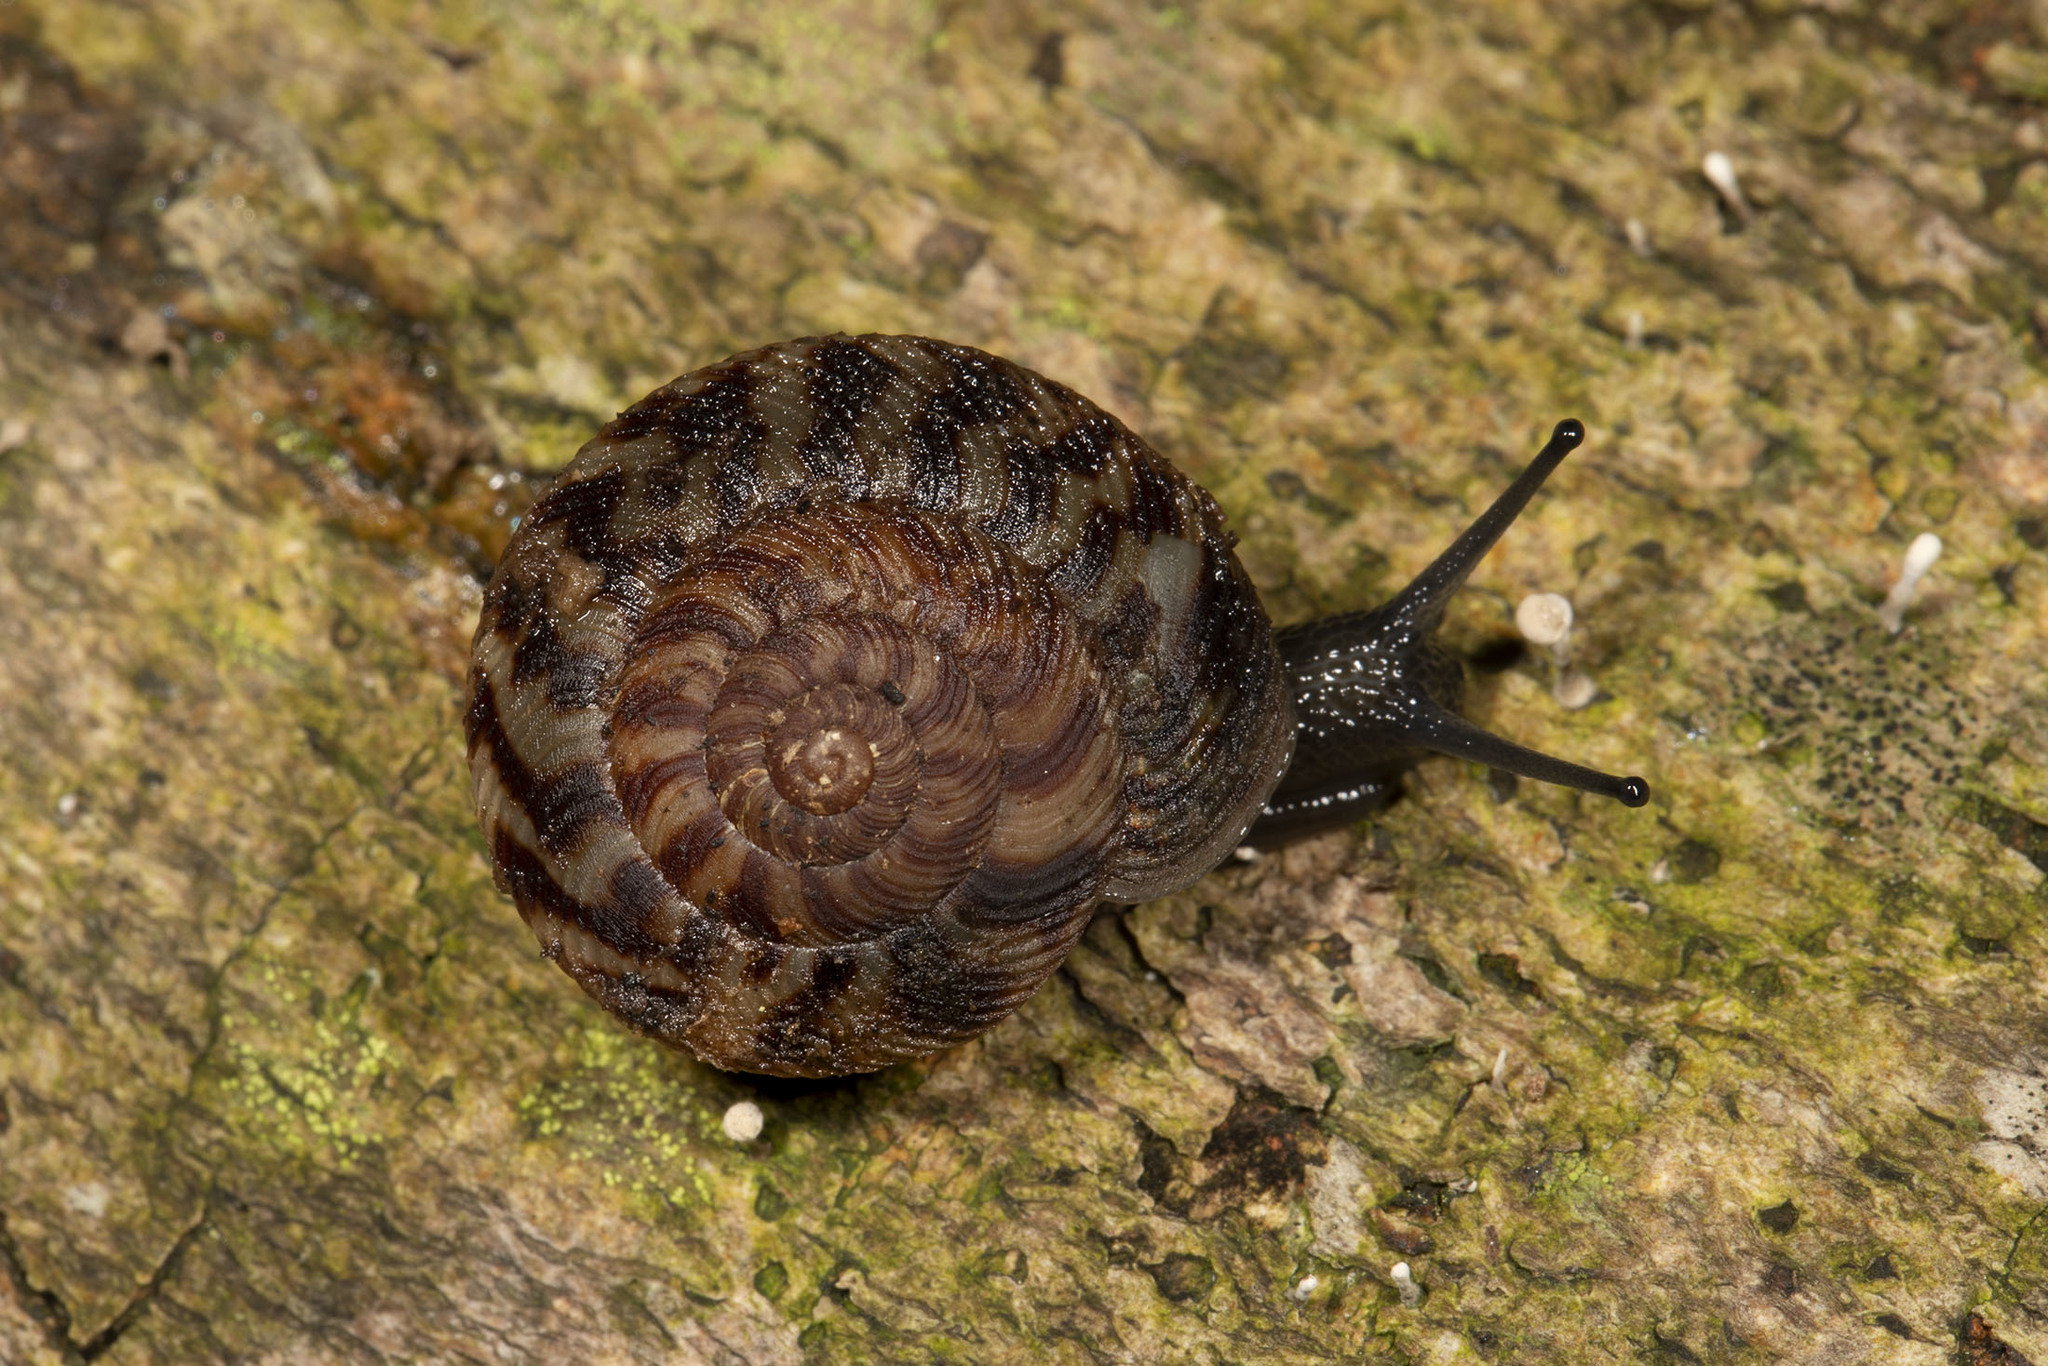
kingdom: Animalia
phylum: Mollusca
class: Gastropoda
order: Stylommatophora
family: Discidae
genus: Anguispira
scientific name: Anguispira alternata
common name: Flamed tigersnail
